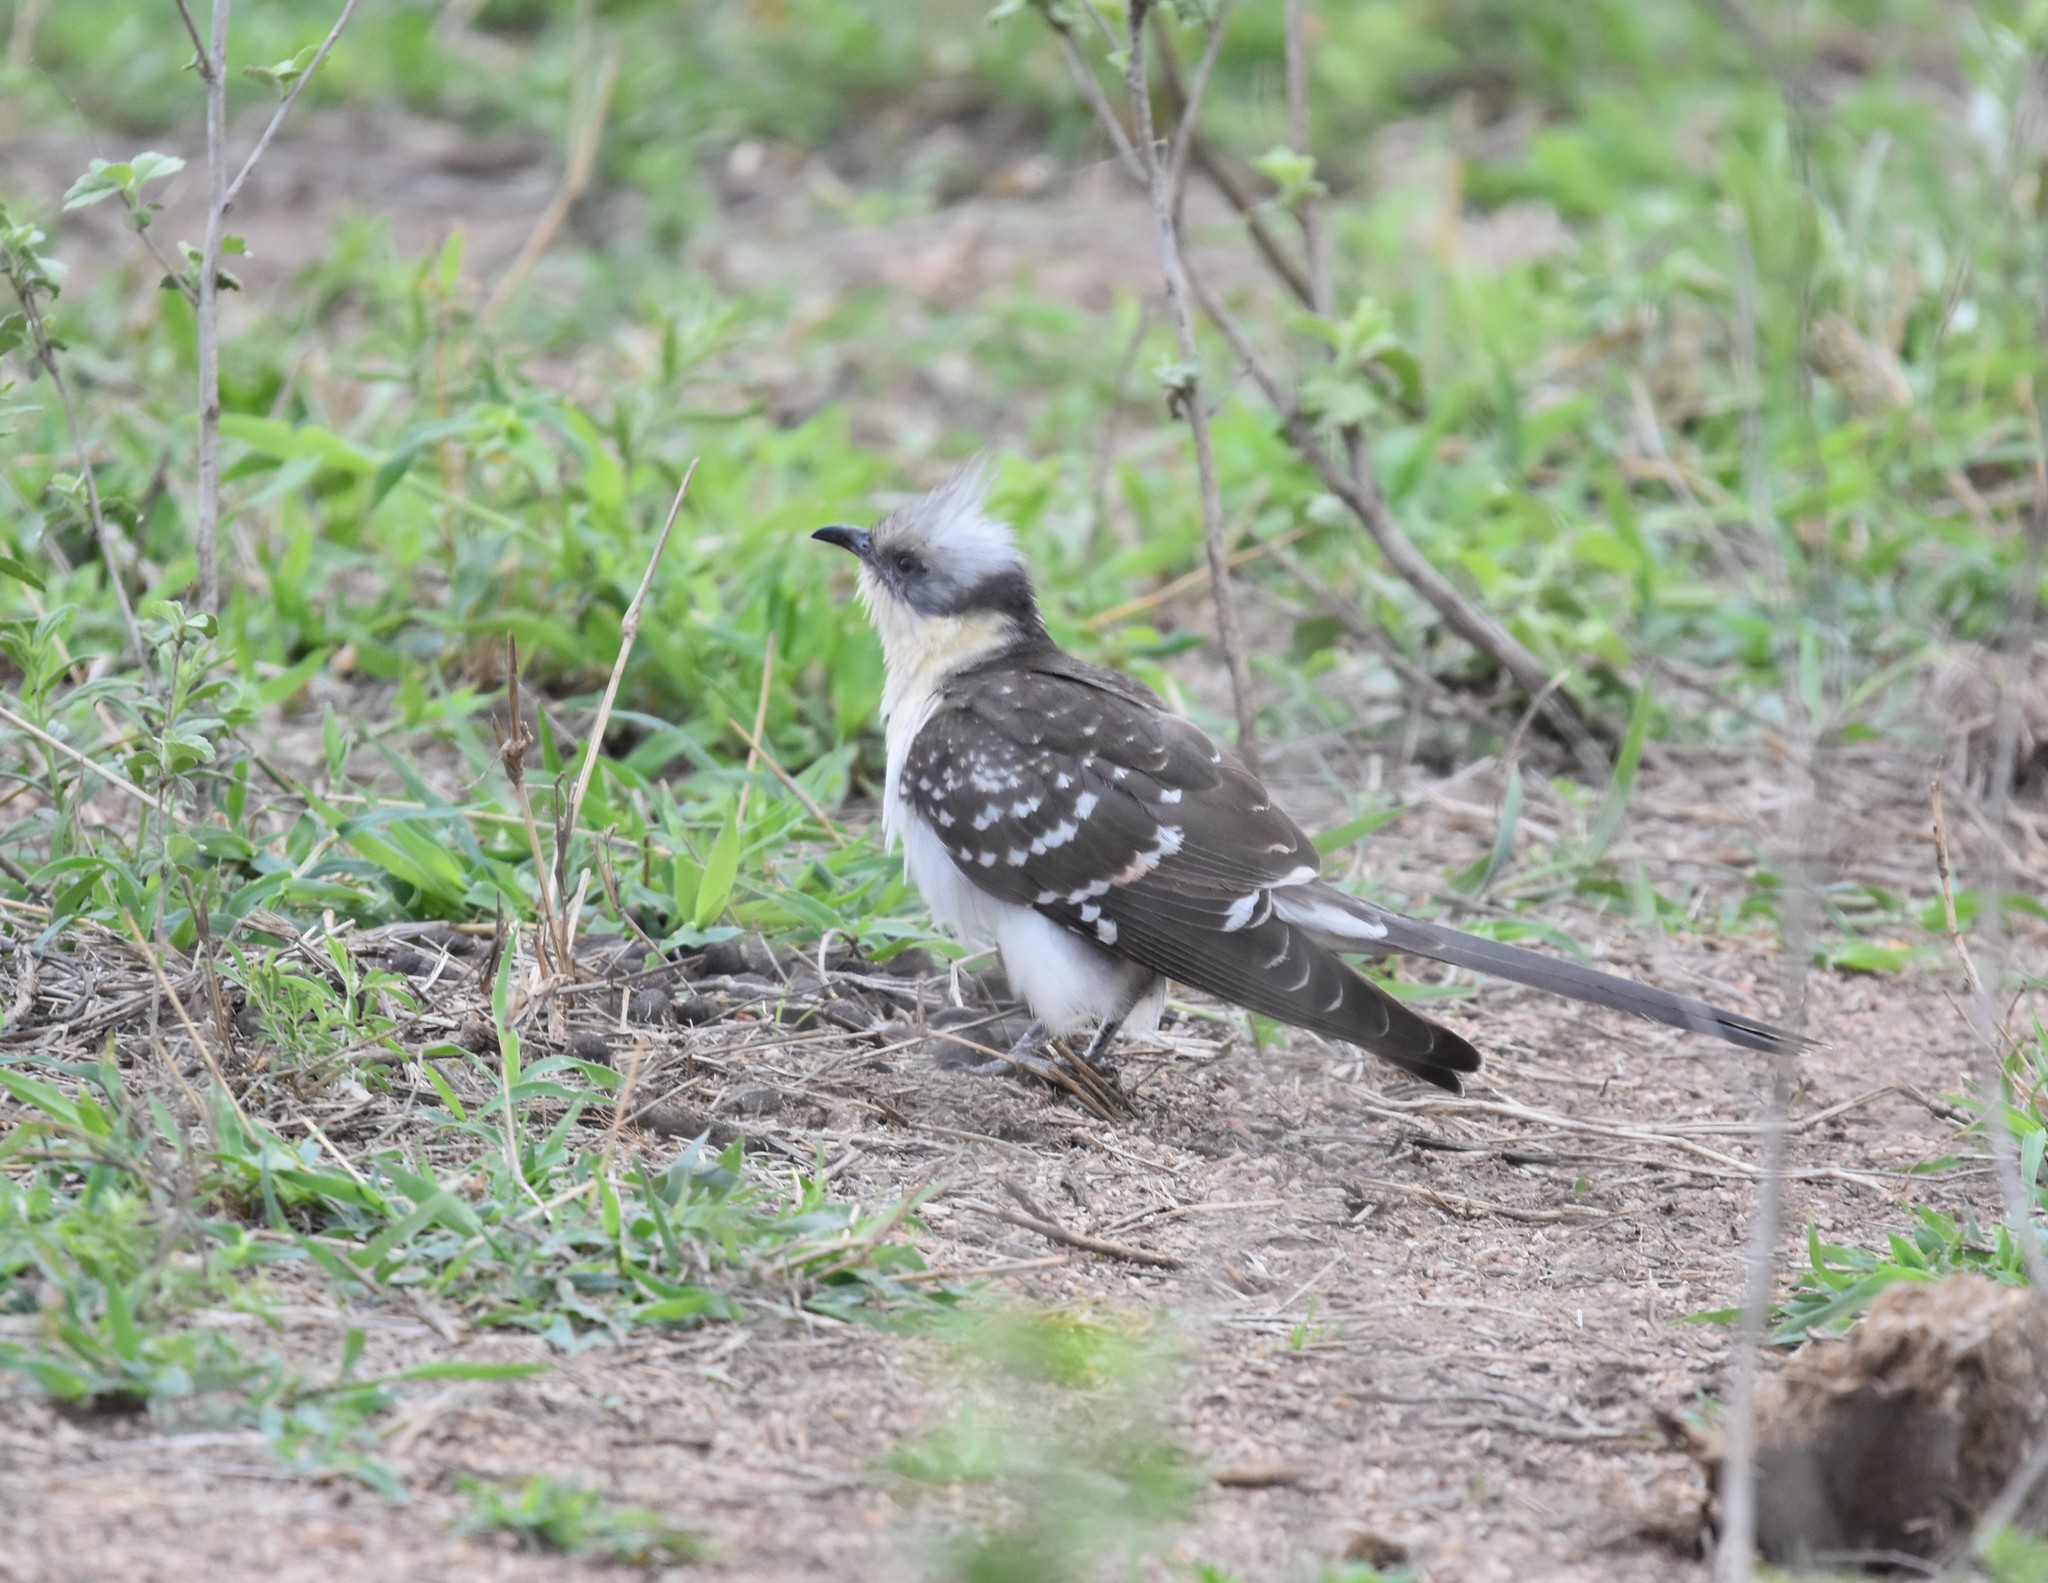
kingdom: Animalia
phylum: Chordata
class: Aves
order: Cuculiformes
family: Cuculidae
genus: Clamator
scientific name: Clamator glandarius
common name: Great spotted cuckoo
